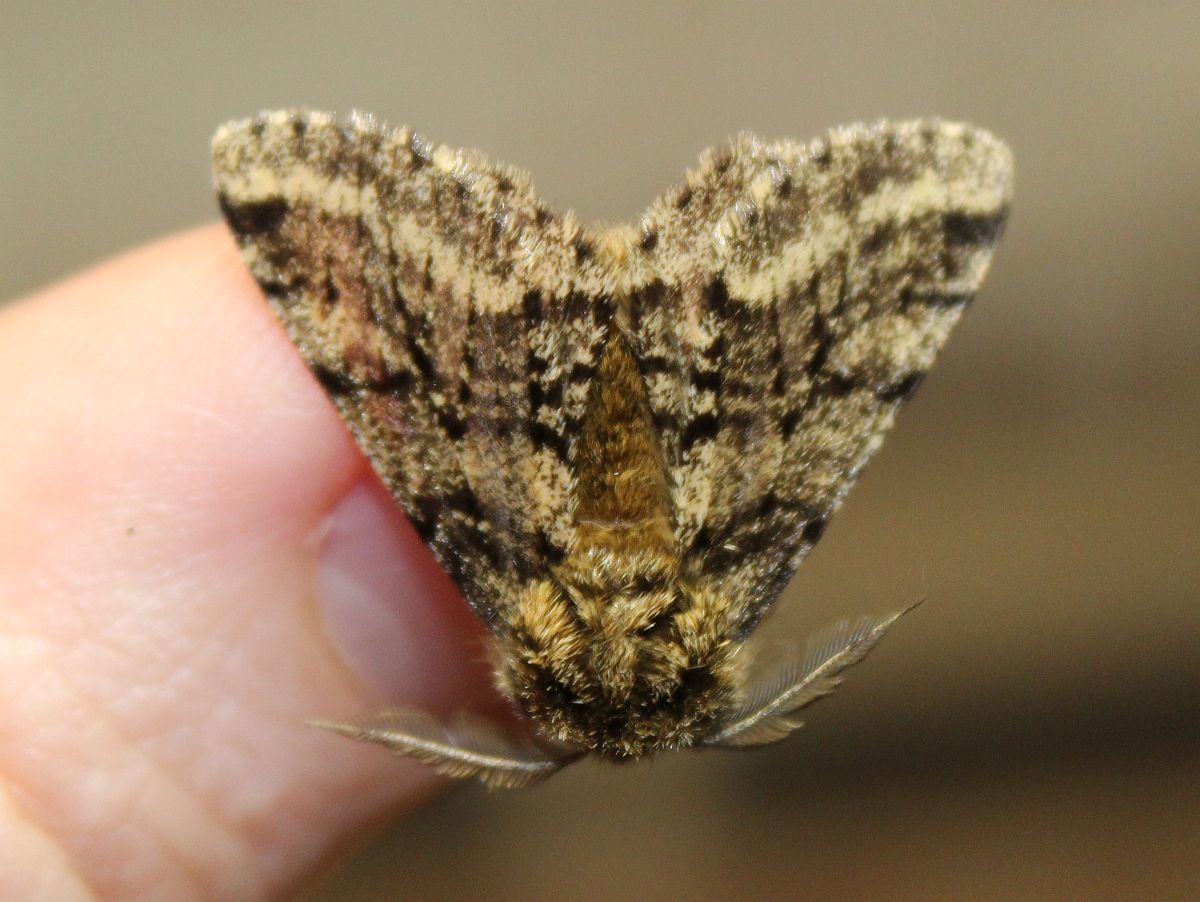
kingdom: Animalia
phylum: Arthropoda
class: Insecta
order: Lepidoptera
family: Geometridae
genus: Lycia
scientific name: Lycia hirtaria
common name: Brindled beauty
